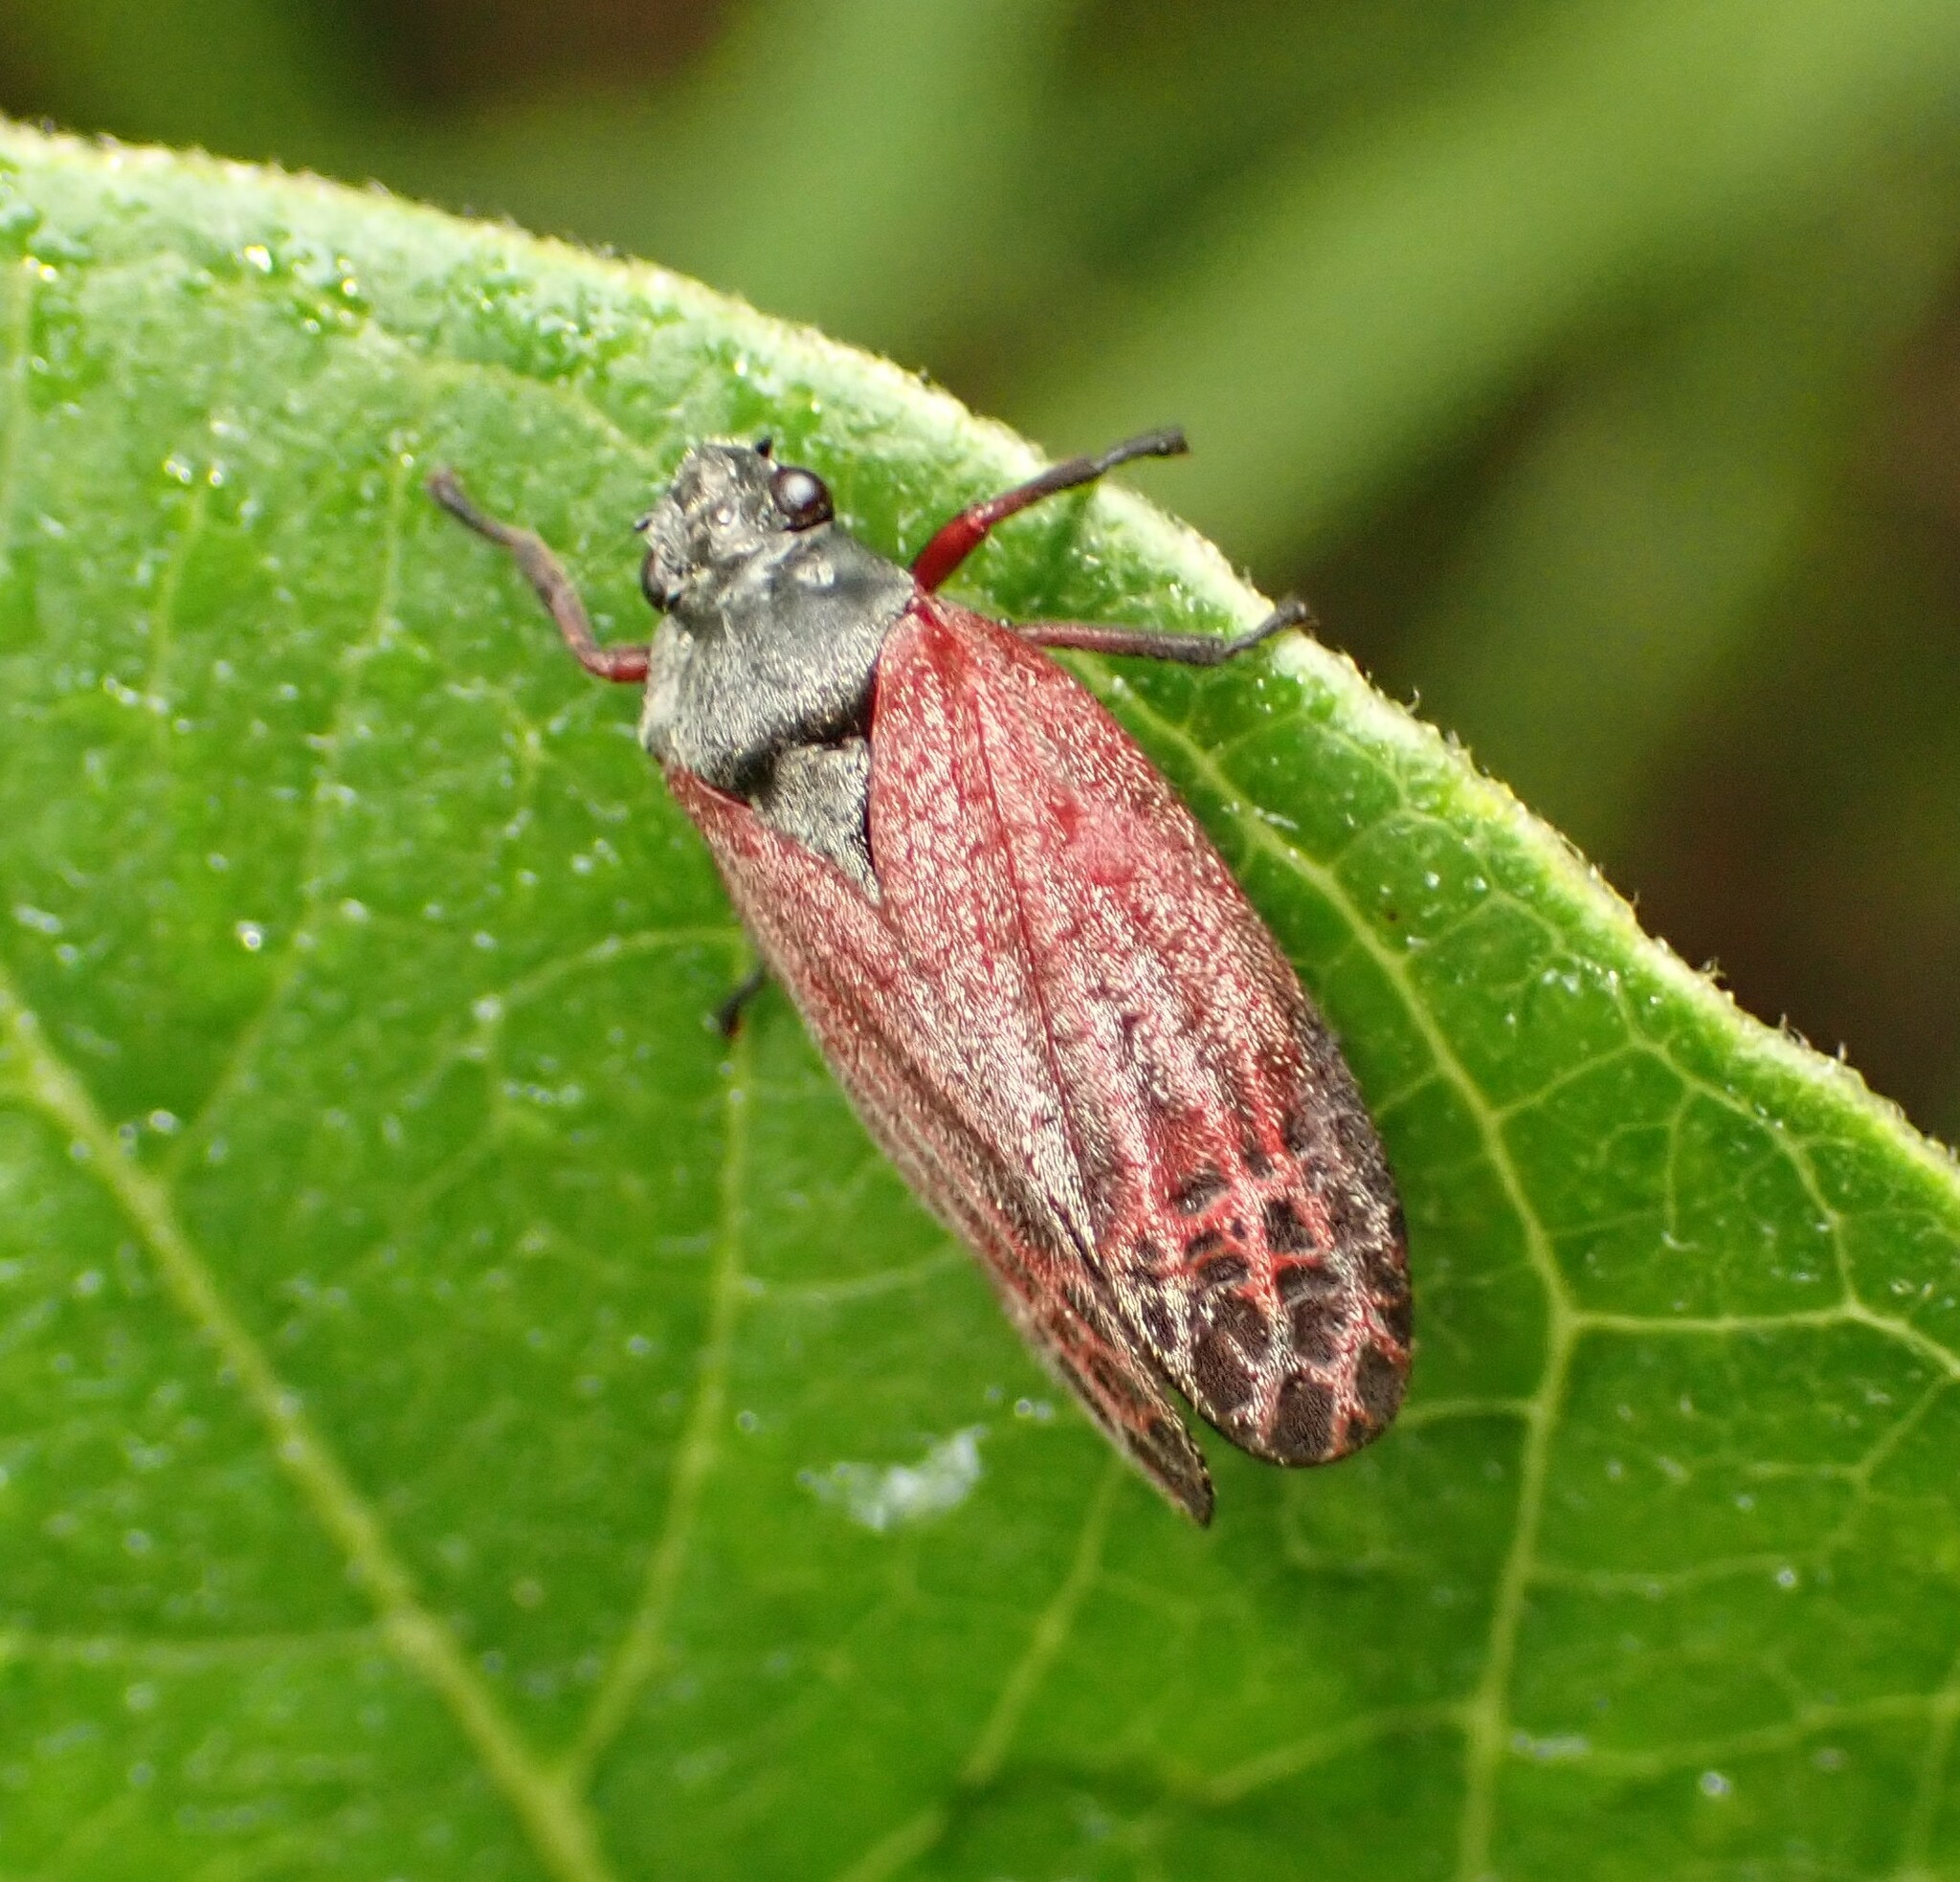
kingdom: Animalia
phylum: Arthropoda
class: Insecta
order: Hemiptera
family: Cercopidae
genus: Mahanarva
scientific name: Mahanarva rubripennis
